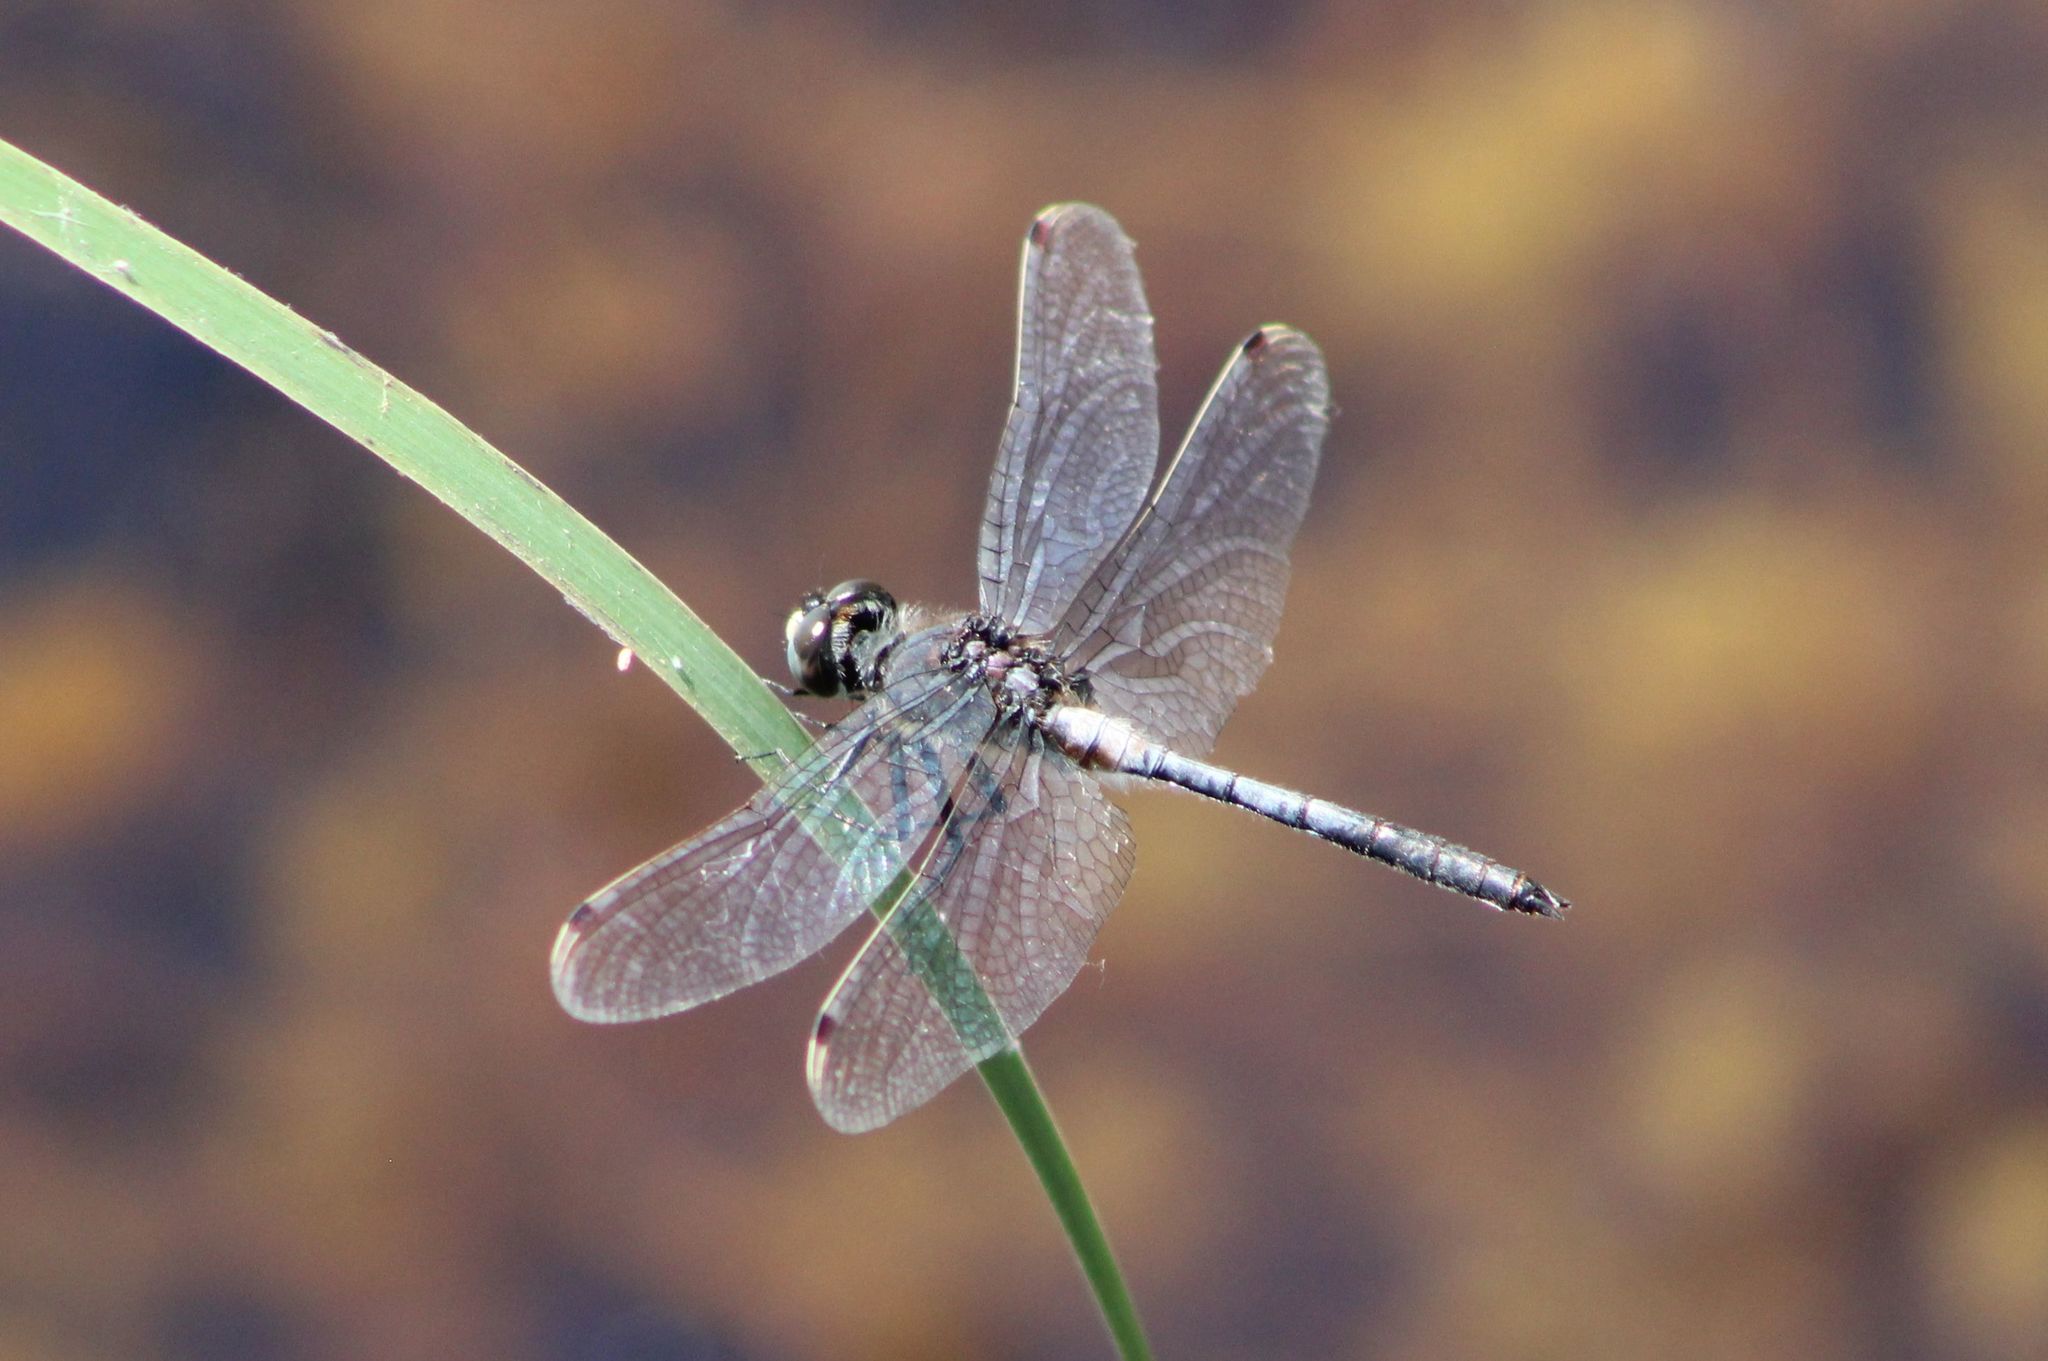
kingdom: Animalia
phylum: Arthropoda
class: Insecta
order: Odonata
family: Libellulidae
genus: Leucorrhinia
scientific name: Leucorrhinia proxima
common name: Belted whiteface
